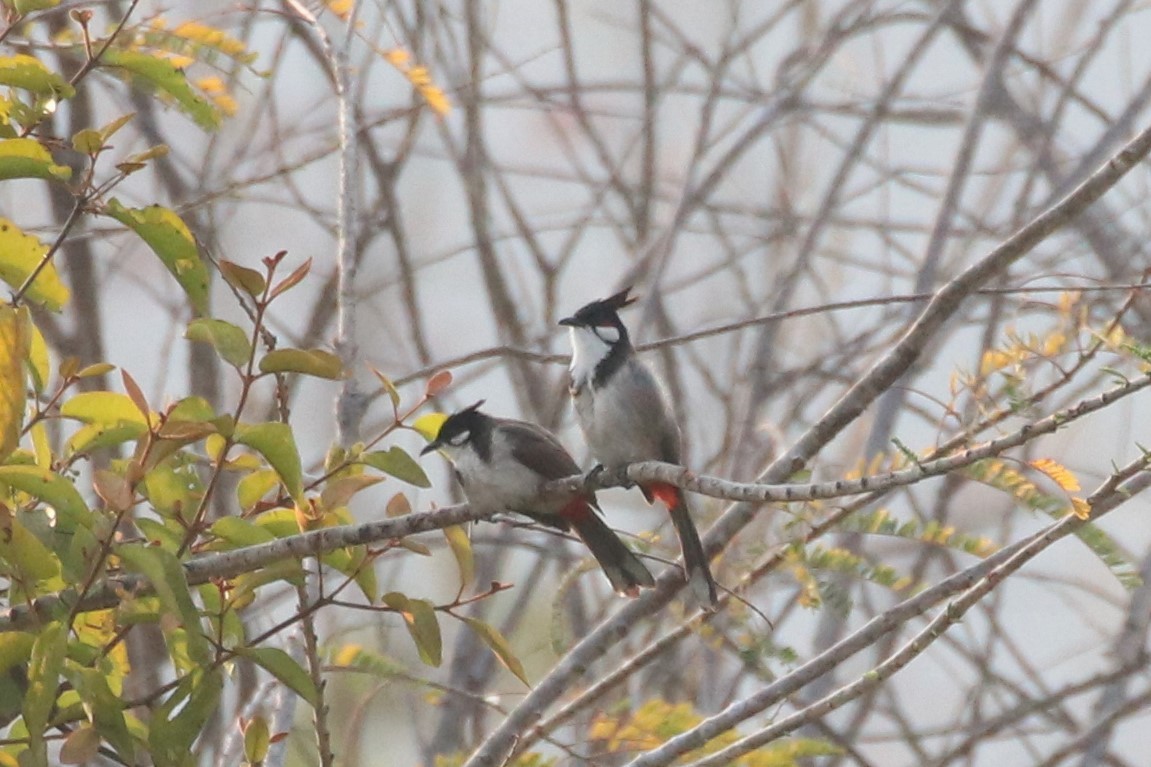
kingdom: Animalia
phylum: Chordata
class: Aves
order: Passeriformes
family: Pycnonotidae
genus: Pycnonotus
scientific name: Pycnonotus jocosus
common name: Red-whiskered bulbul
